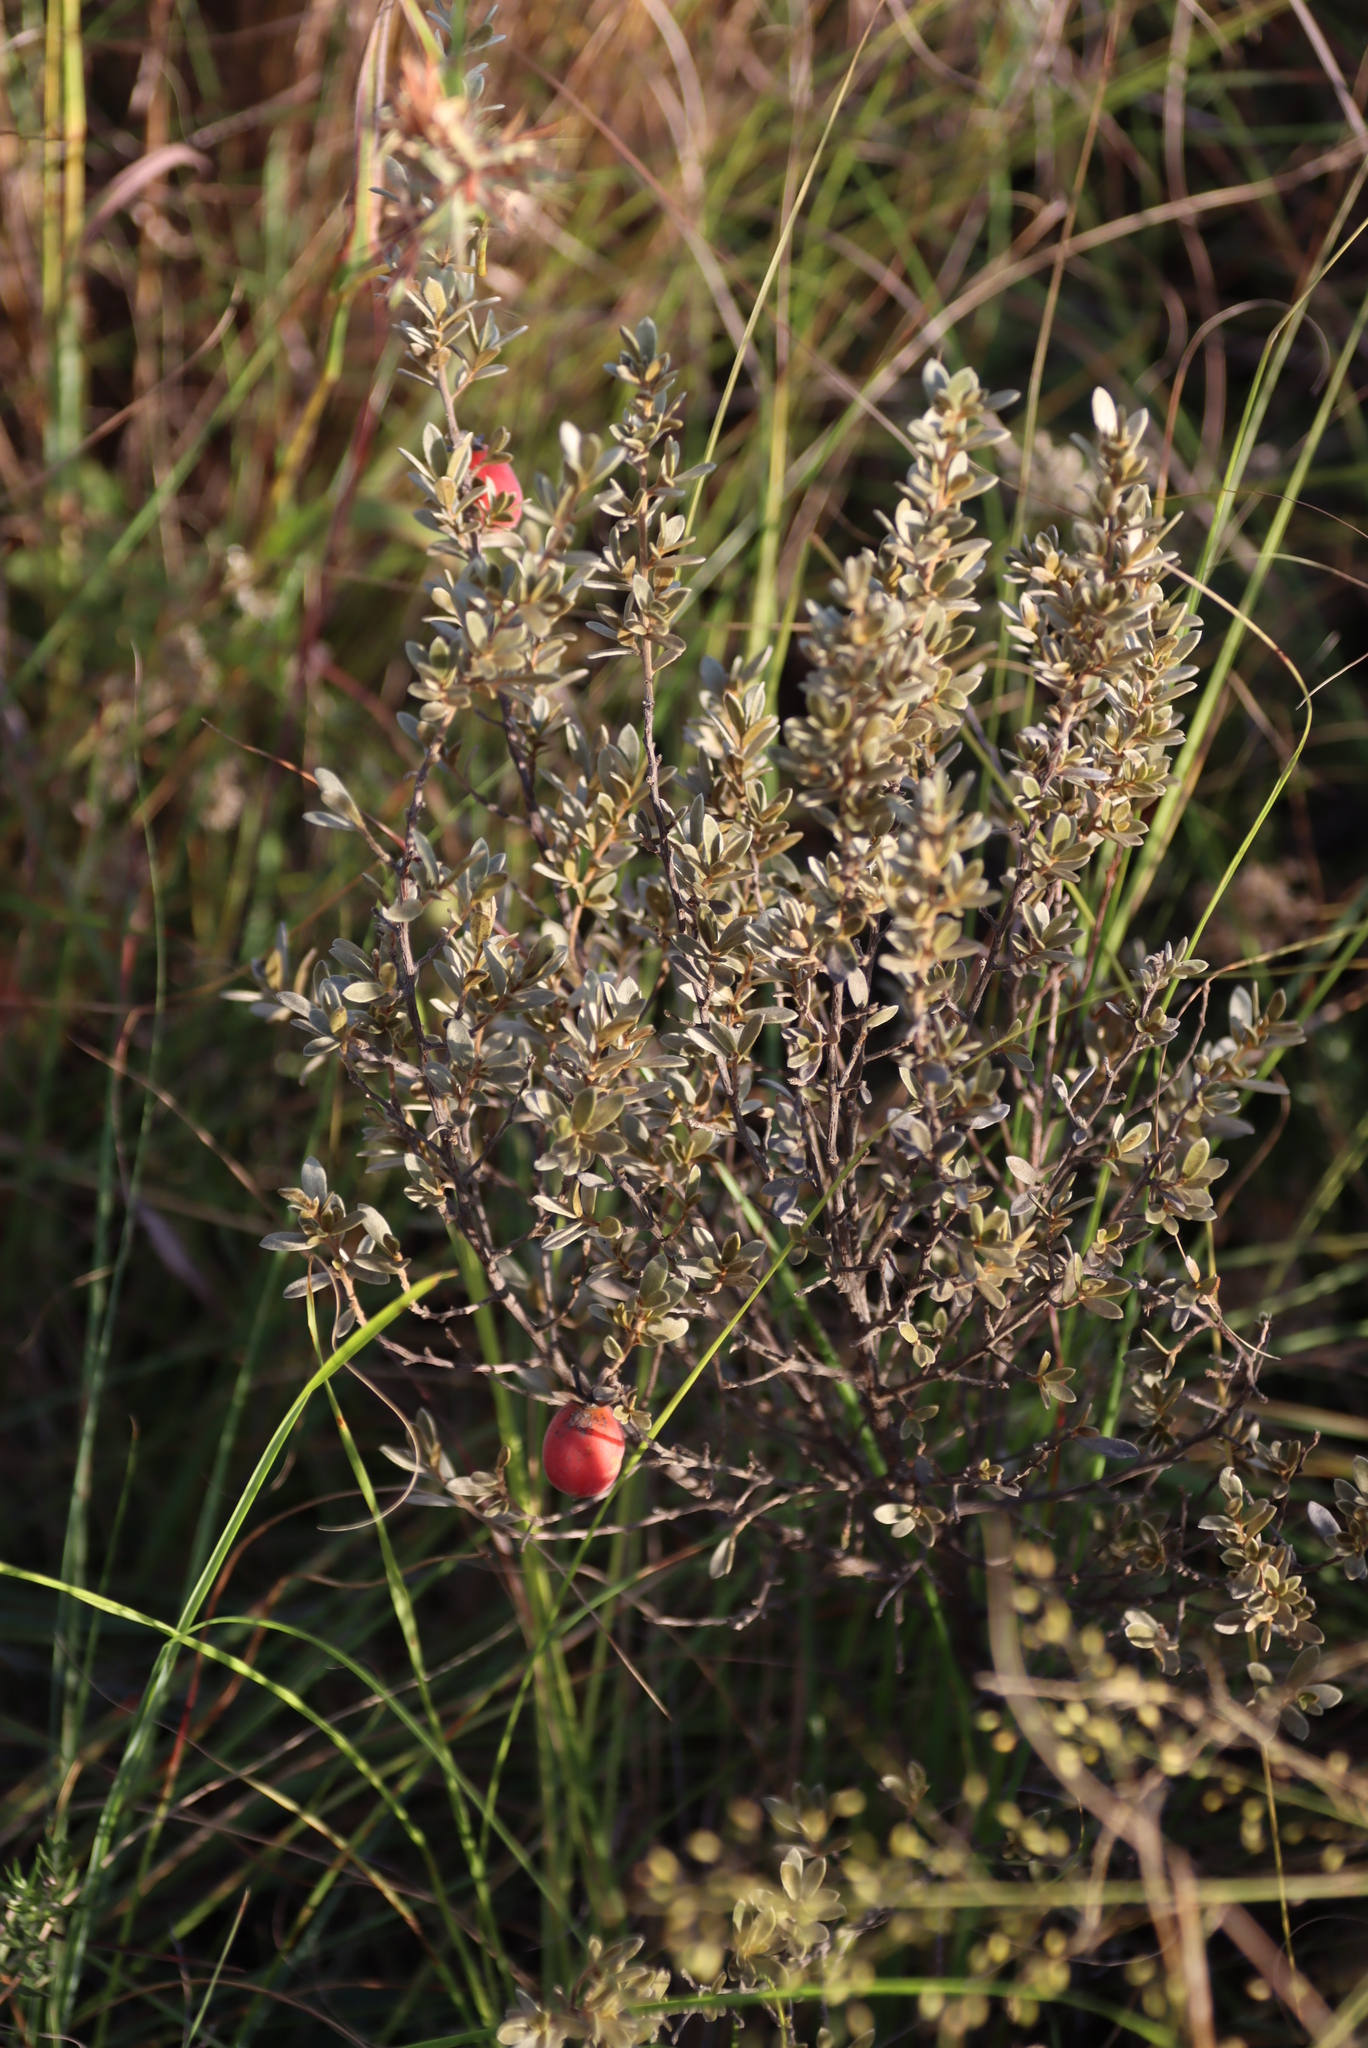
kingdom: Plantae
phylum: Tracheophyta
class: Magnoliopsida
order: Ericales
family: Ebenaceae
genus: Diospyros
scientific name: Diospyros lycioides
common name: Red star apple
